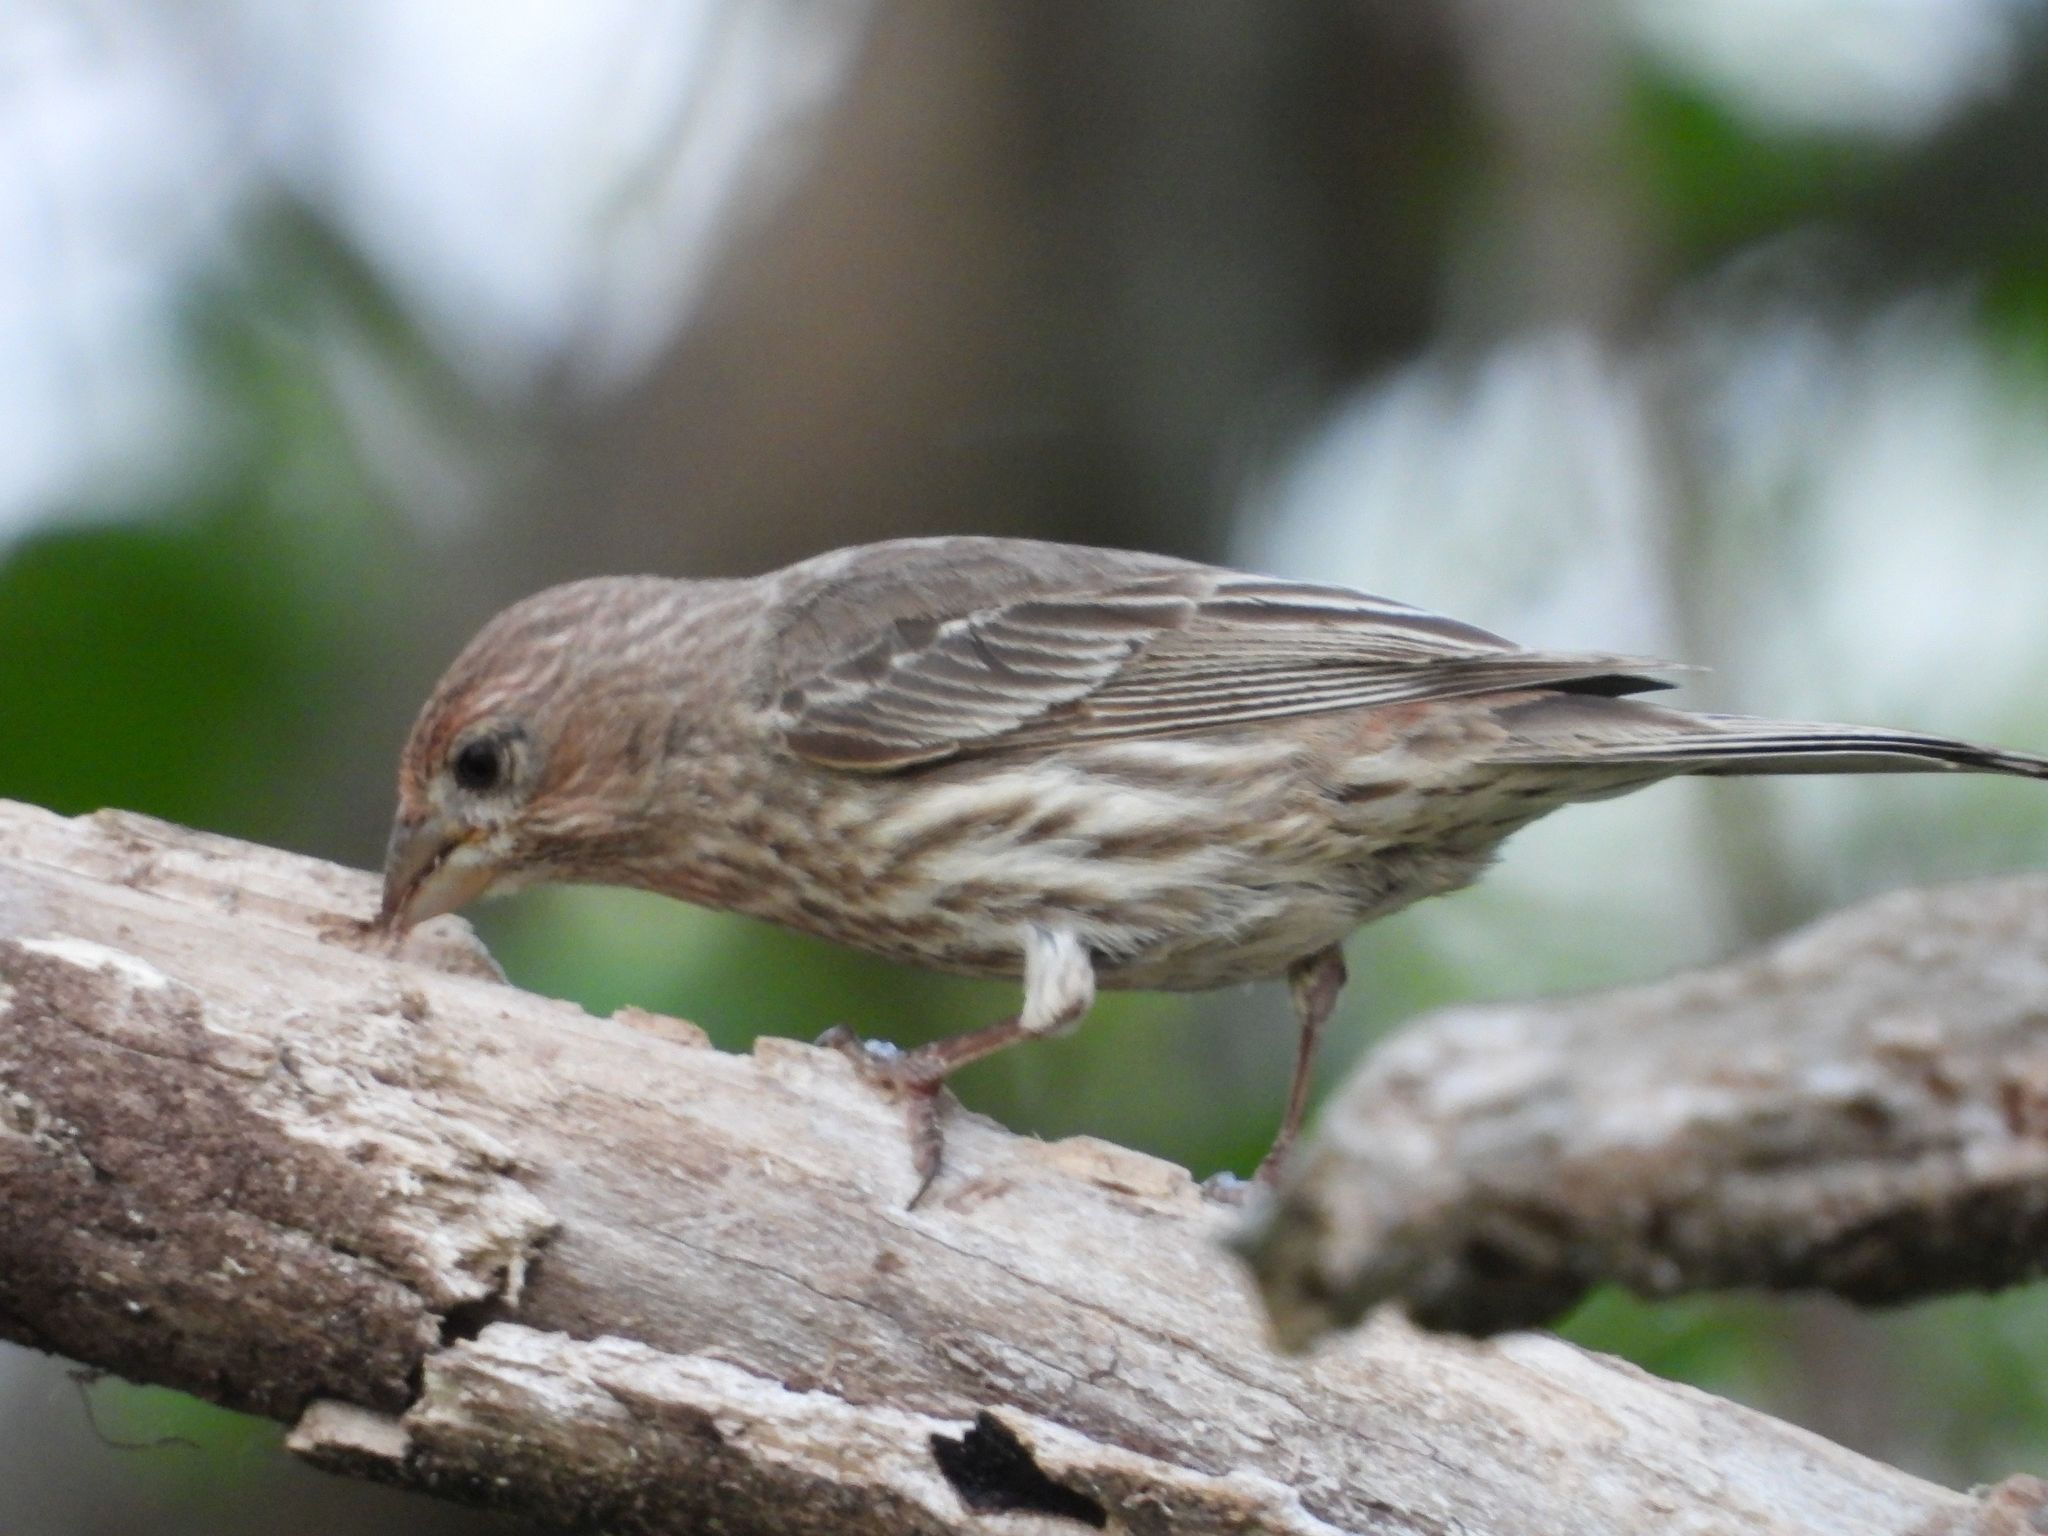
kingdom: Animalia
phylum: Chordata
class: Aves
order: Passeriformes
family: Fringillidae
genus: Haemorhous
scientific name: Haemorhous mexicanus
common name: House finch
